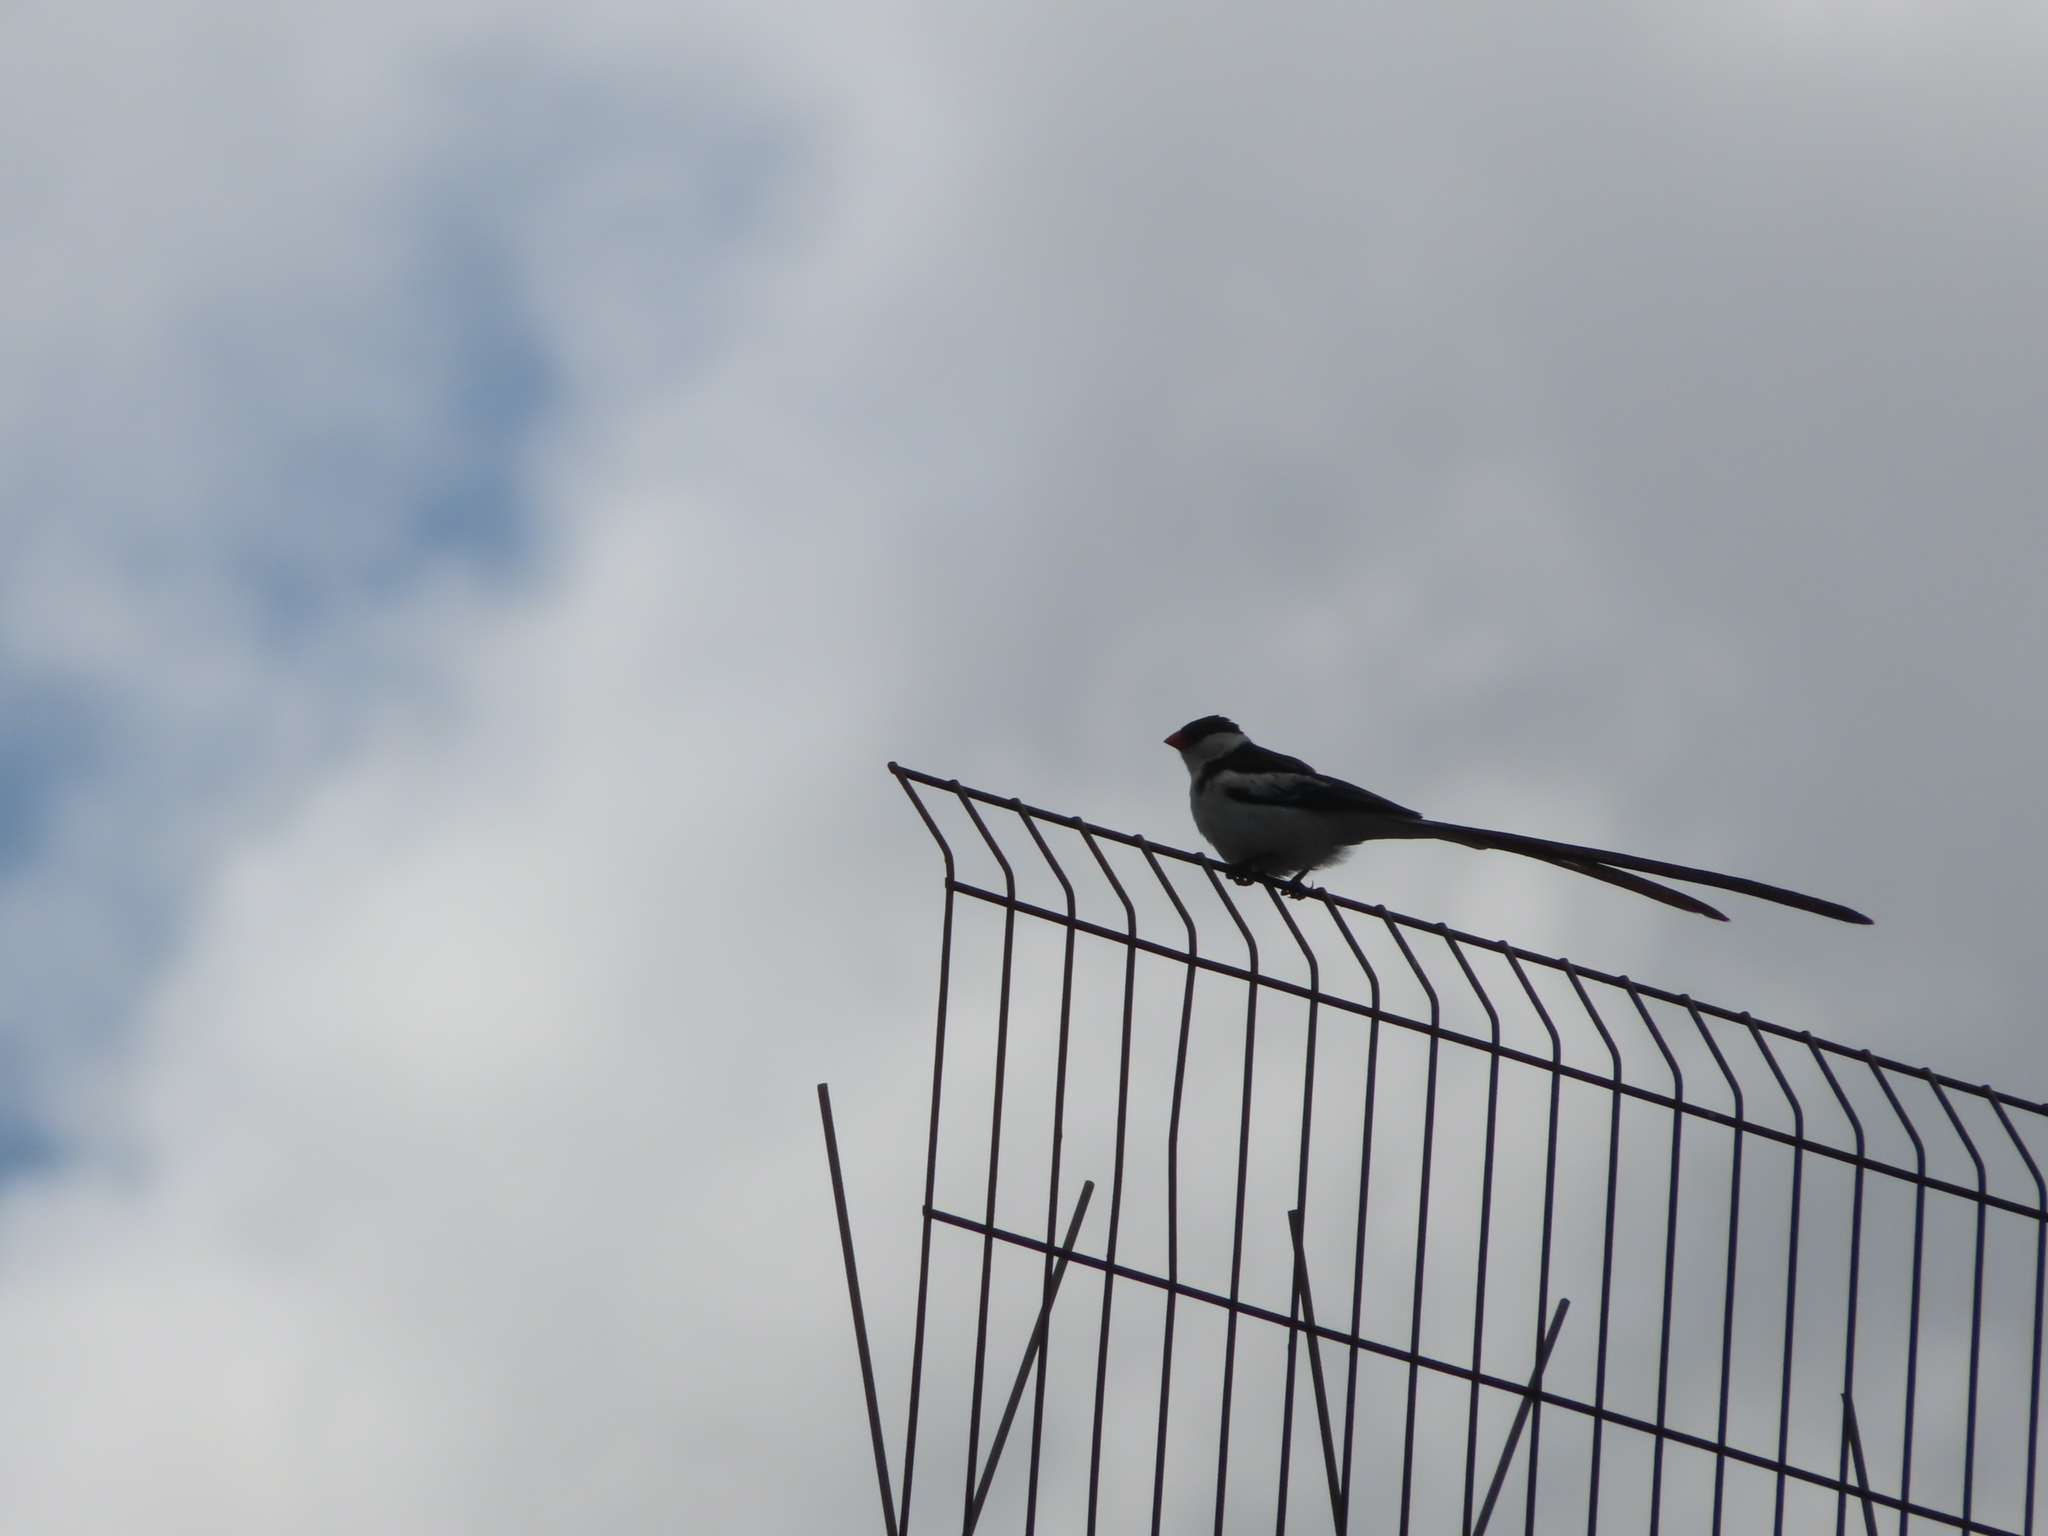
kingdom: Animalia
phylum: Chordata
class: Aves
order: Passeriformes
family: Viduidae
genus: Vidua
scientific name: Vidua macroura
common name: Pin-tailed whydah
